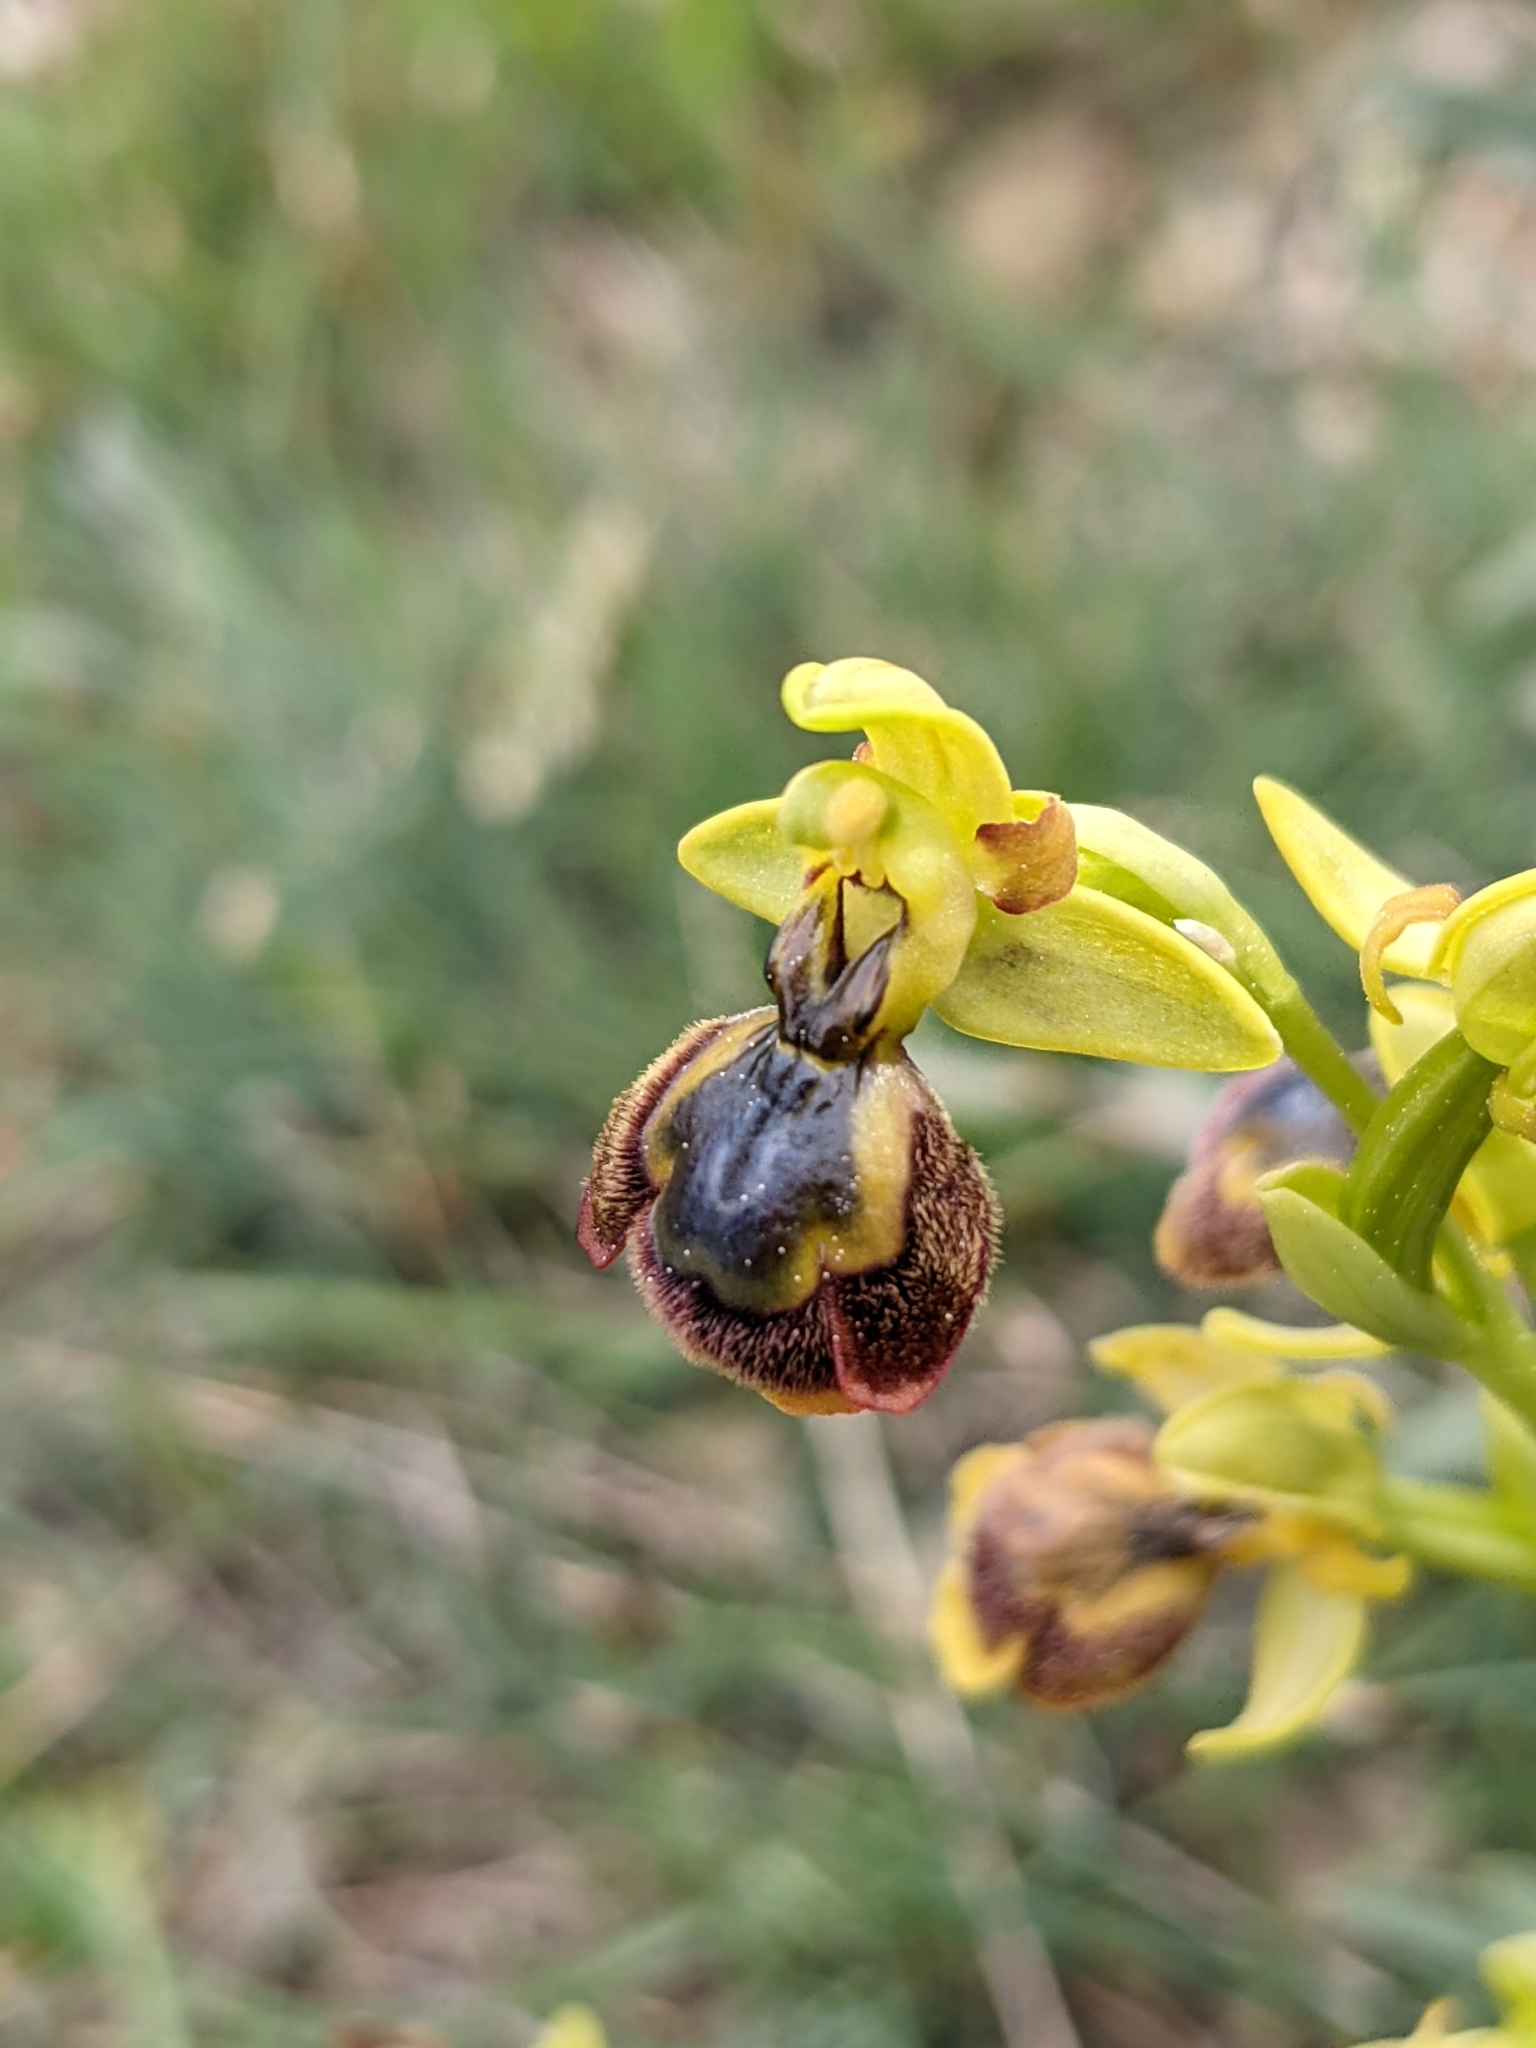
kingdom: Plantae
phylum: Tracheophyta
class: Liliopsida
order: Asparagales
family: Orchidaceae
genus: Ophrys
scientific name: Ophrys chobautii
